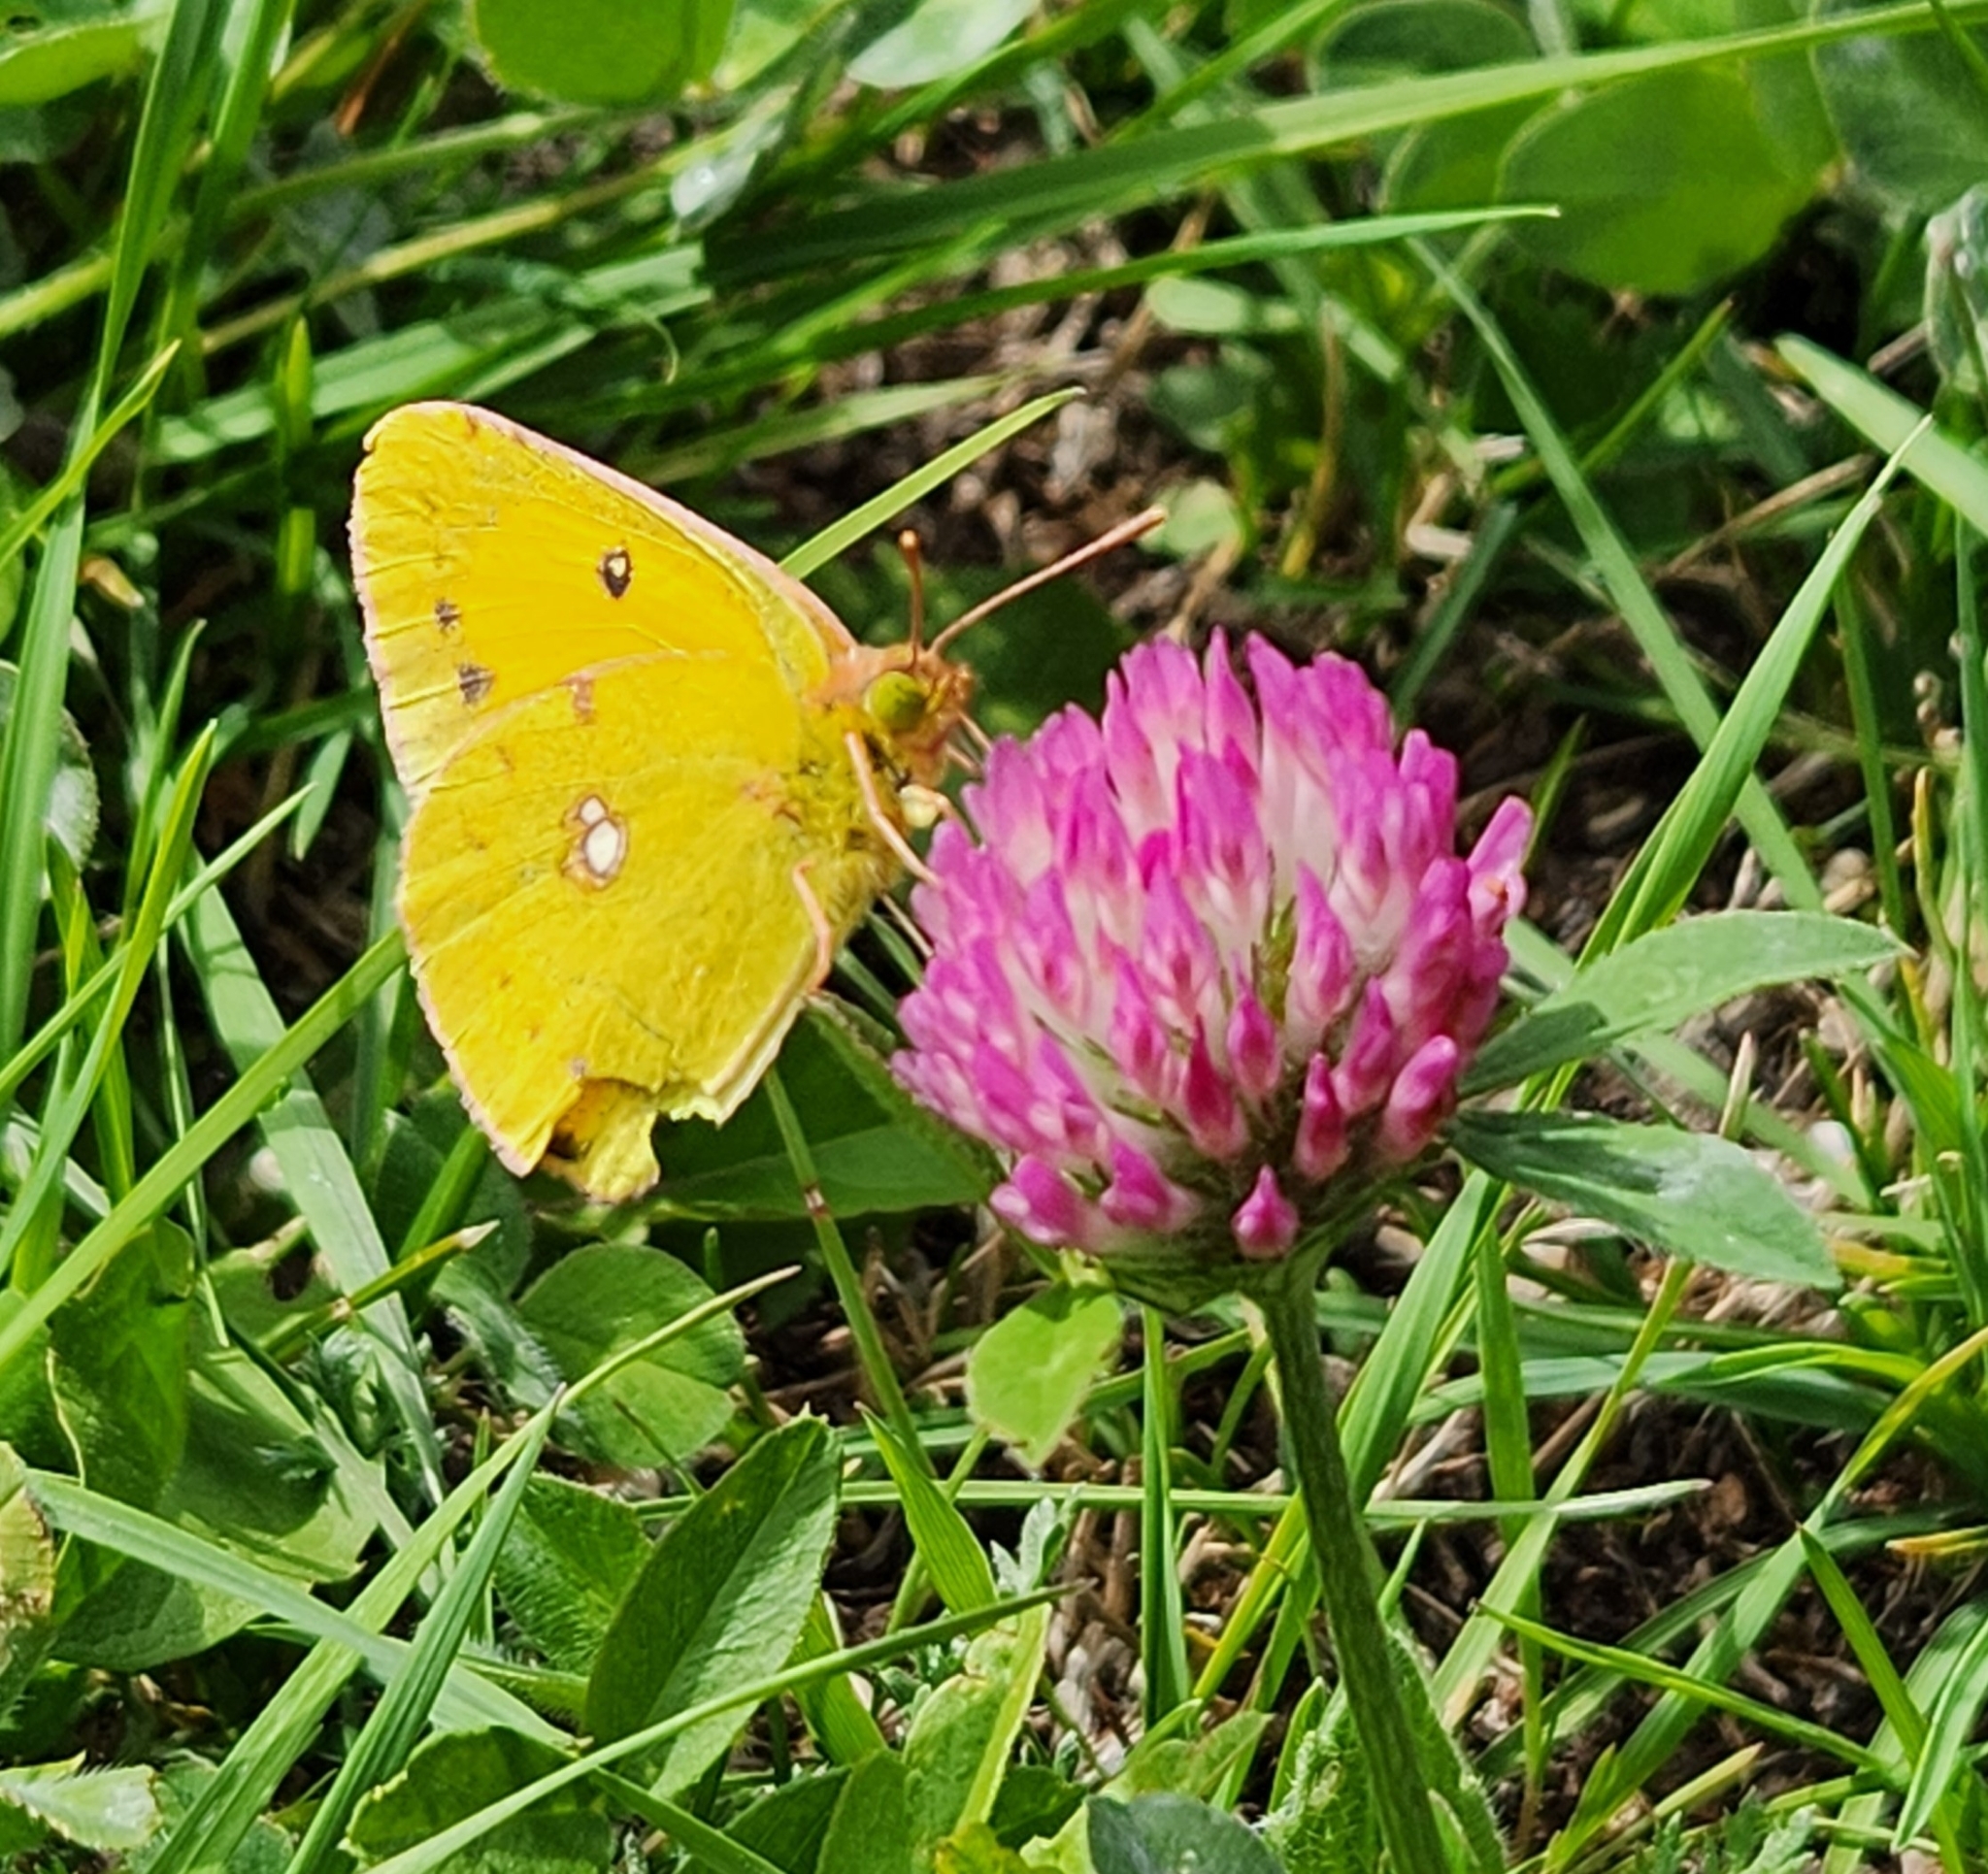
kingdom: Animalia
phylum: Arthropoda
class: Insecta
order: Lepidoptera
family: Pieridae
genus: Colias
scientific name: Colias croceus
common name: Clouded yellow
